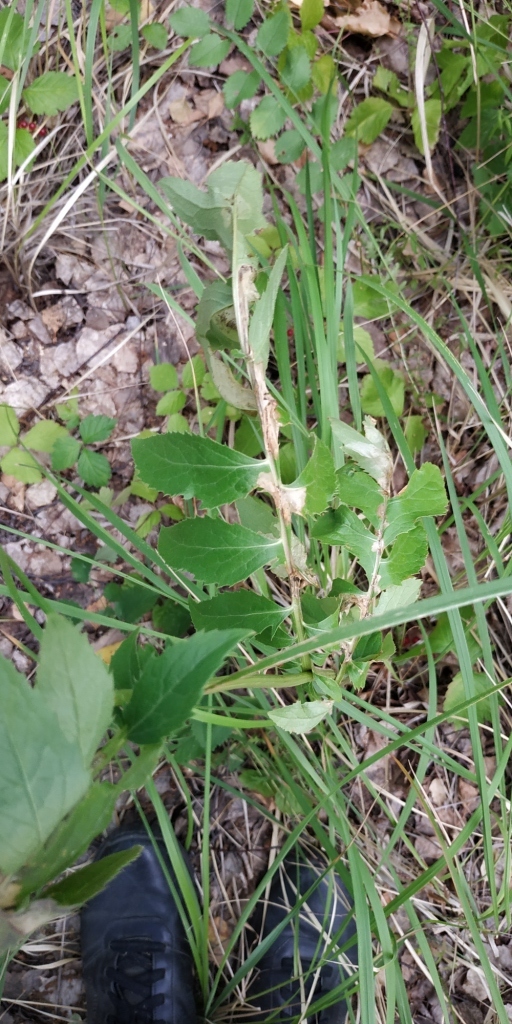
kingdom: Plantae
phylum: Tracheophyta
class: Magnoliopsida
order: Asterales
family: Asteraceae
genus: Serratula
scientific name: Serratula coronata
